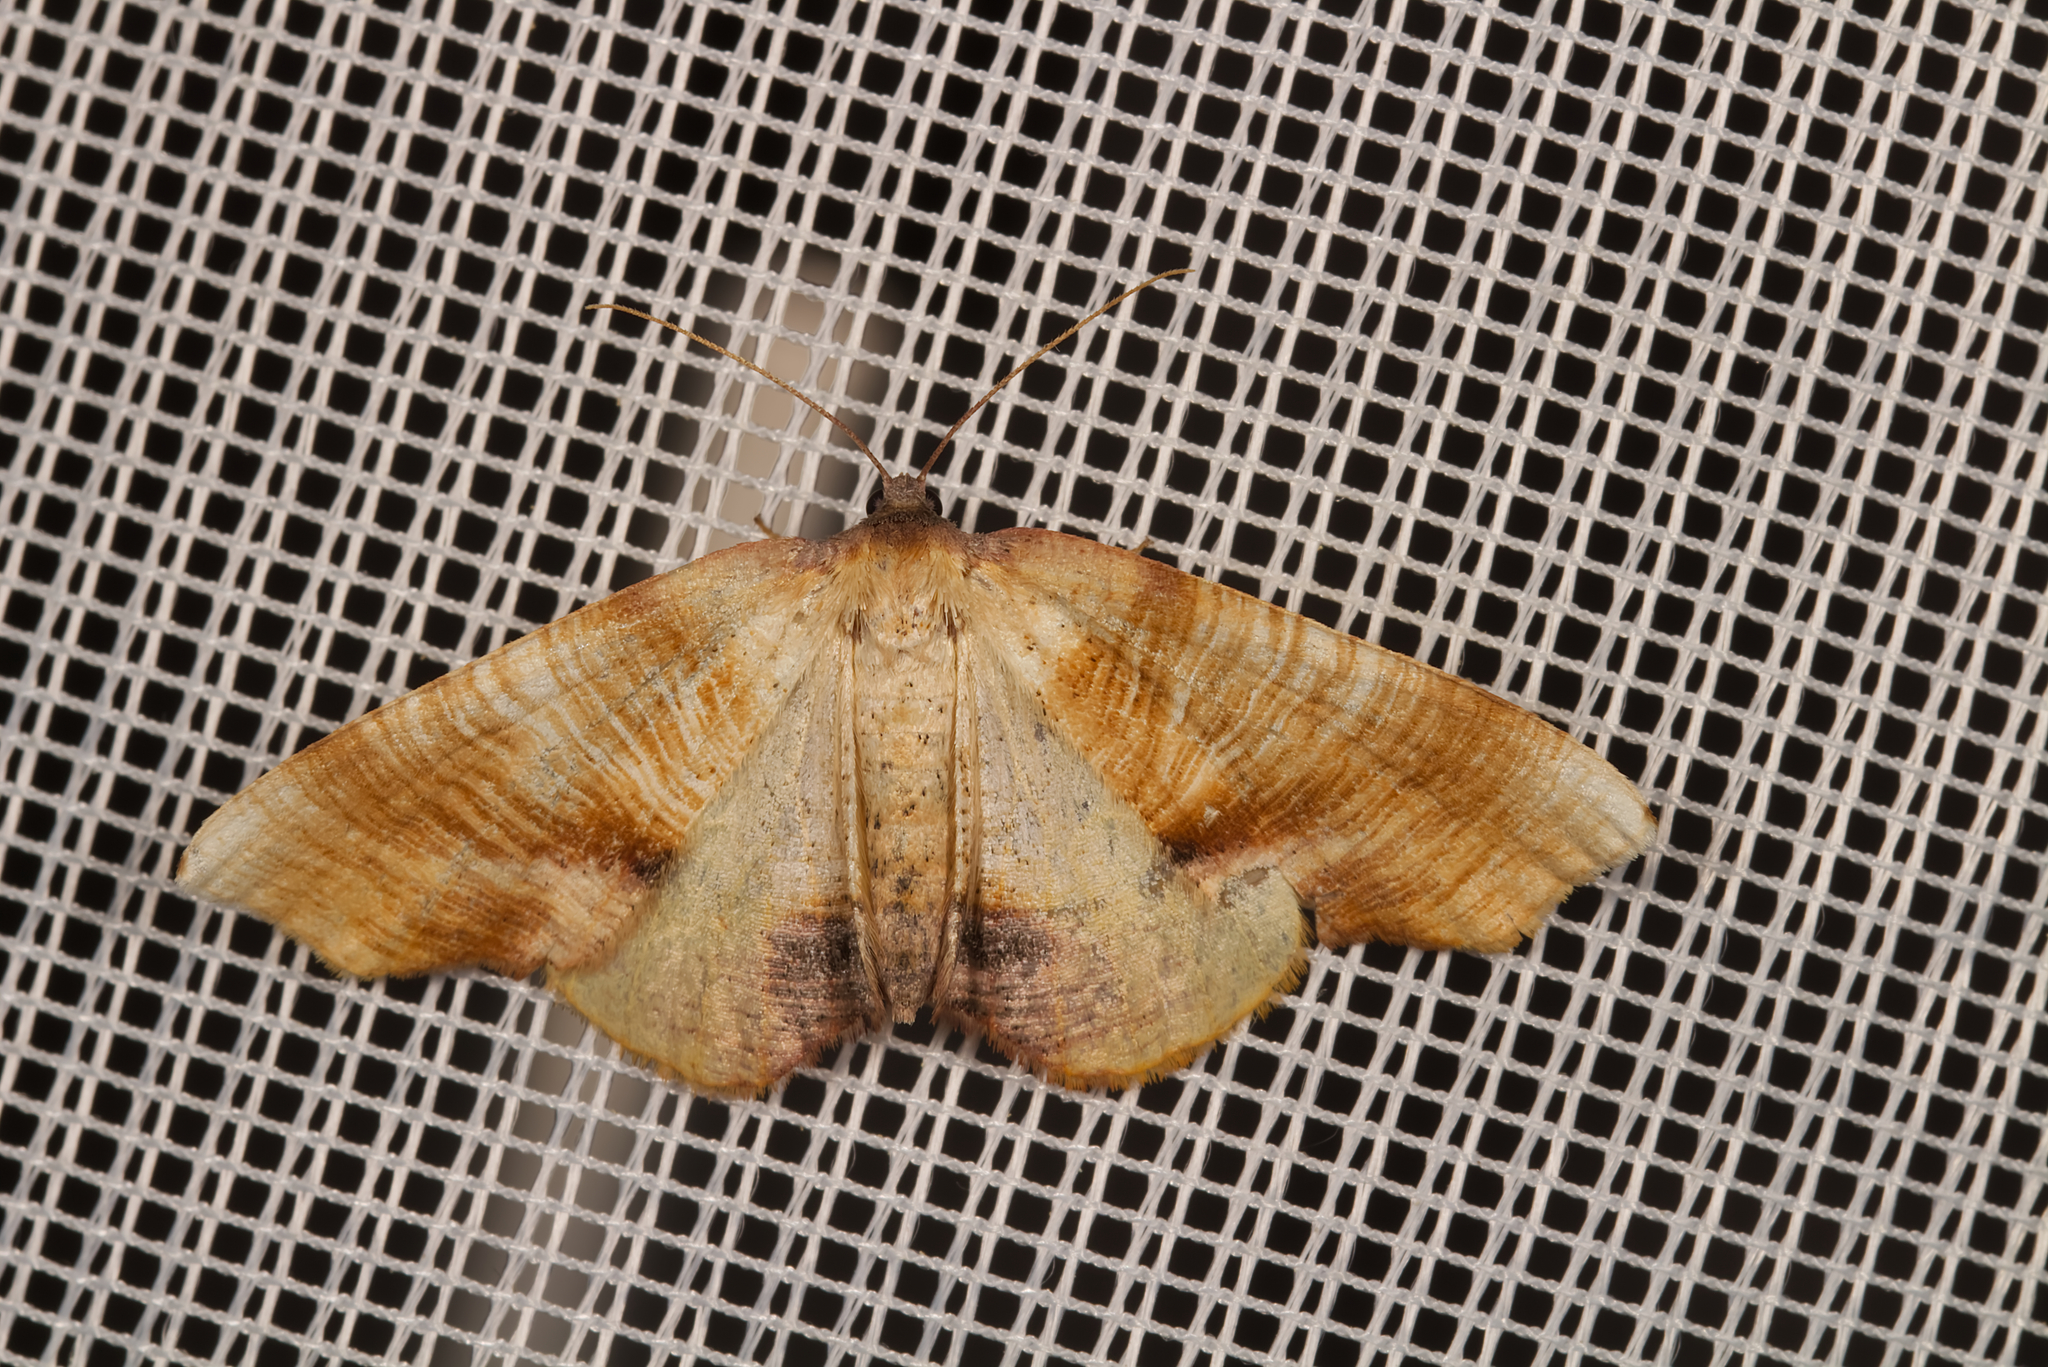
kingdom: Animalia
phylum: Arthropoda
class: Insecta
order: Lepidoptera
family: Geometridae
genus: Plagodis
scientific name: Plagodis dolabraria
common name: Scorched wing
